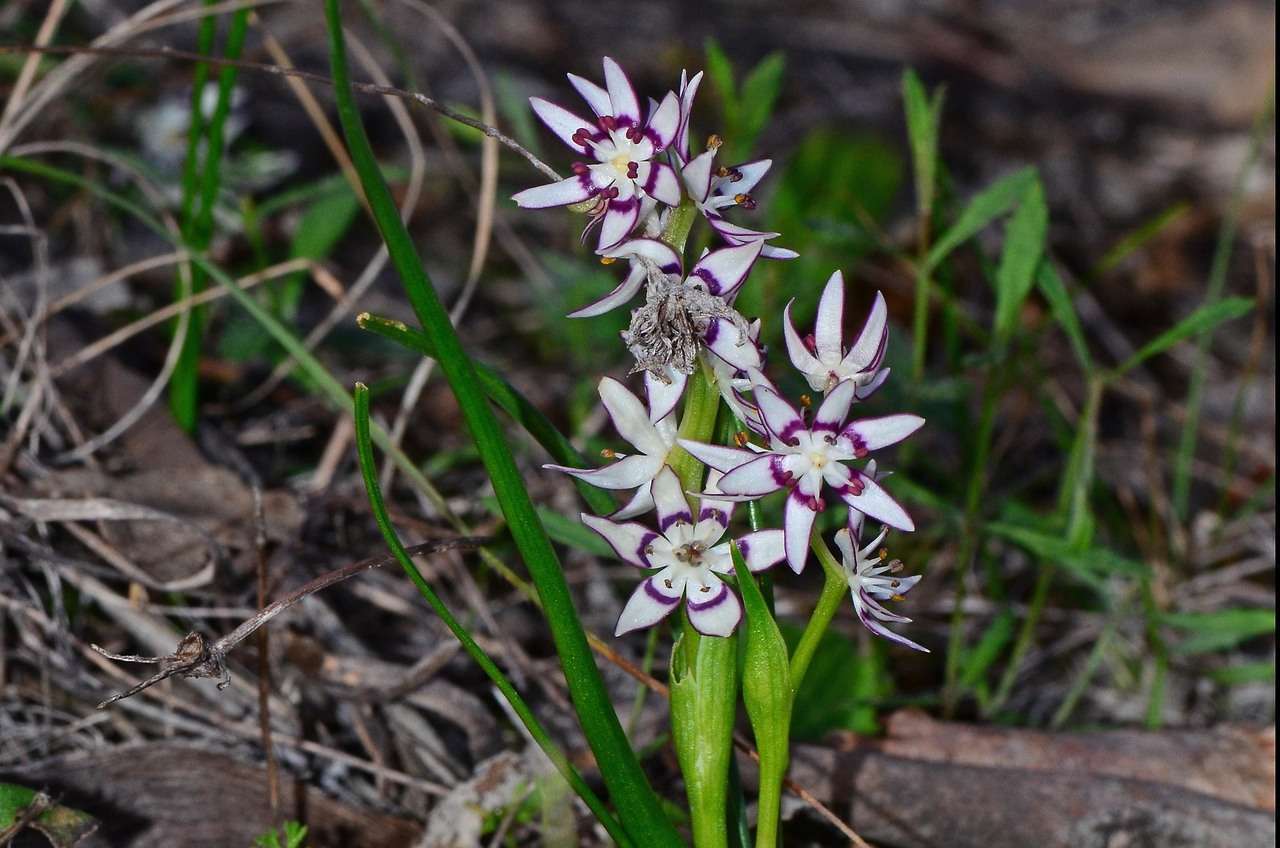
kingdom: Plantae
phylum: Tracheophyta
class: Liliopsida
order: Liliales
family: Colchicaceae
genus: Wurmbea
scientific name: Wurmbea dioica
